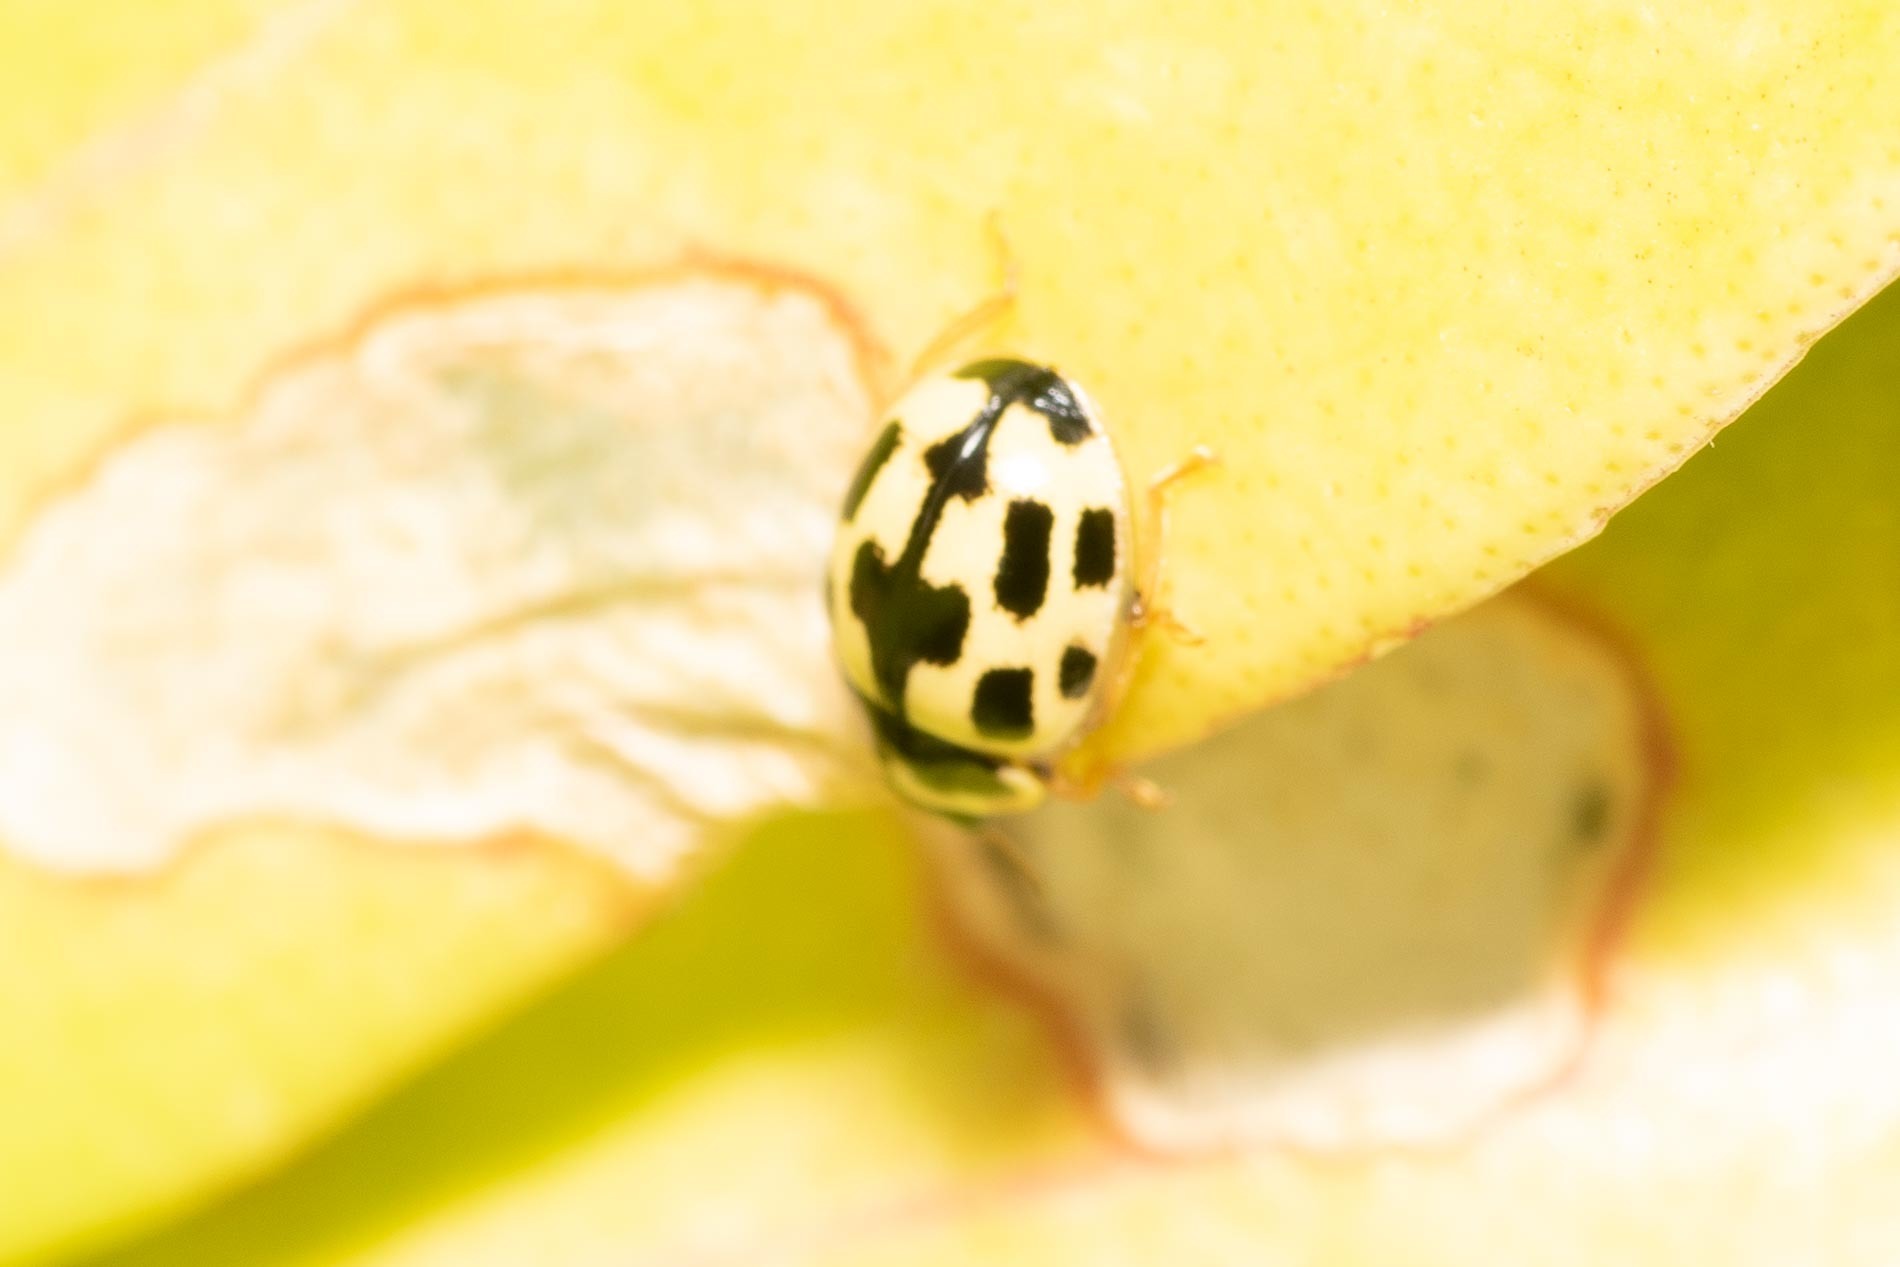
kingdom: Animalia
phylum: Arthropoda
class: Insecta
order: Coleoptera
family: Coccinellidae
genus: Propylaea
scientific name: Propylaea quatuordecimpunctata
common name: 14-spotted ladybird beetle
